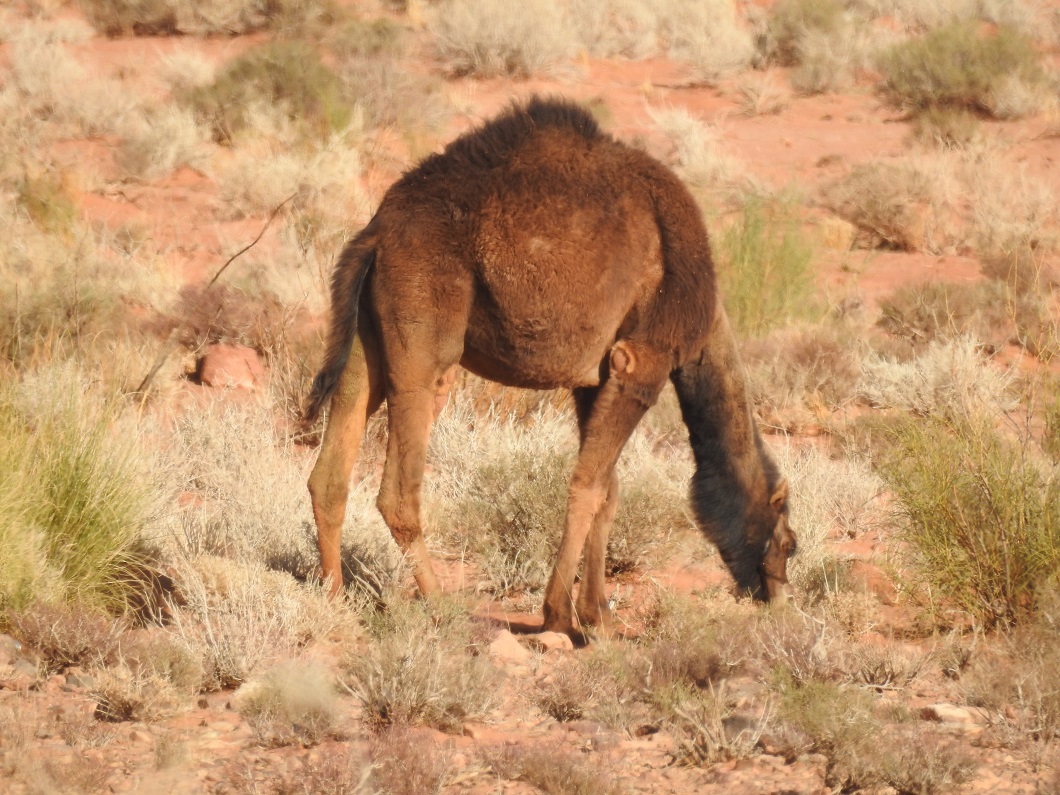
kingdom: Animalia
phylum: Chordata
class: Mammalia
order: Artiodactyla
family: Camelidae
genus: Camelus
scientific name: Camelus dromedarius
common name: One-humped camel
